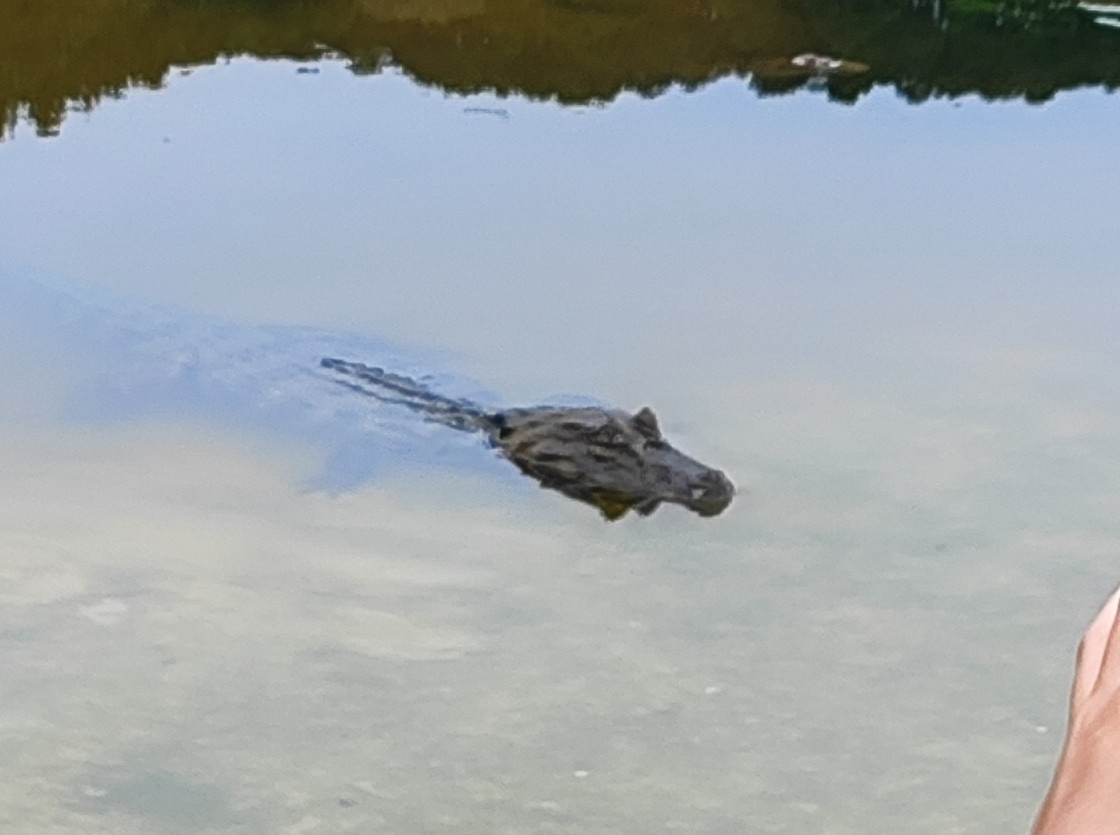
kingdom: Animalia
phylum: Chordata
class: Crocodylia
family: Alligatoridae
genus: Caiman
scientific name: Caiman latirostris
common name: Broad-snouted caiman
